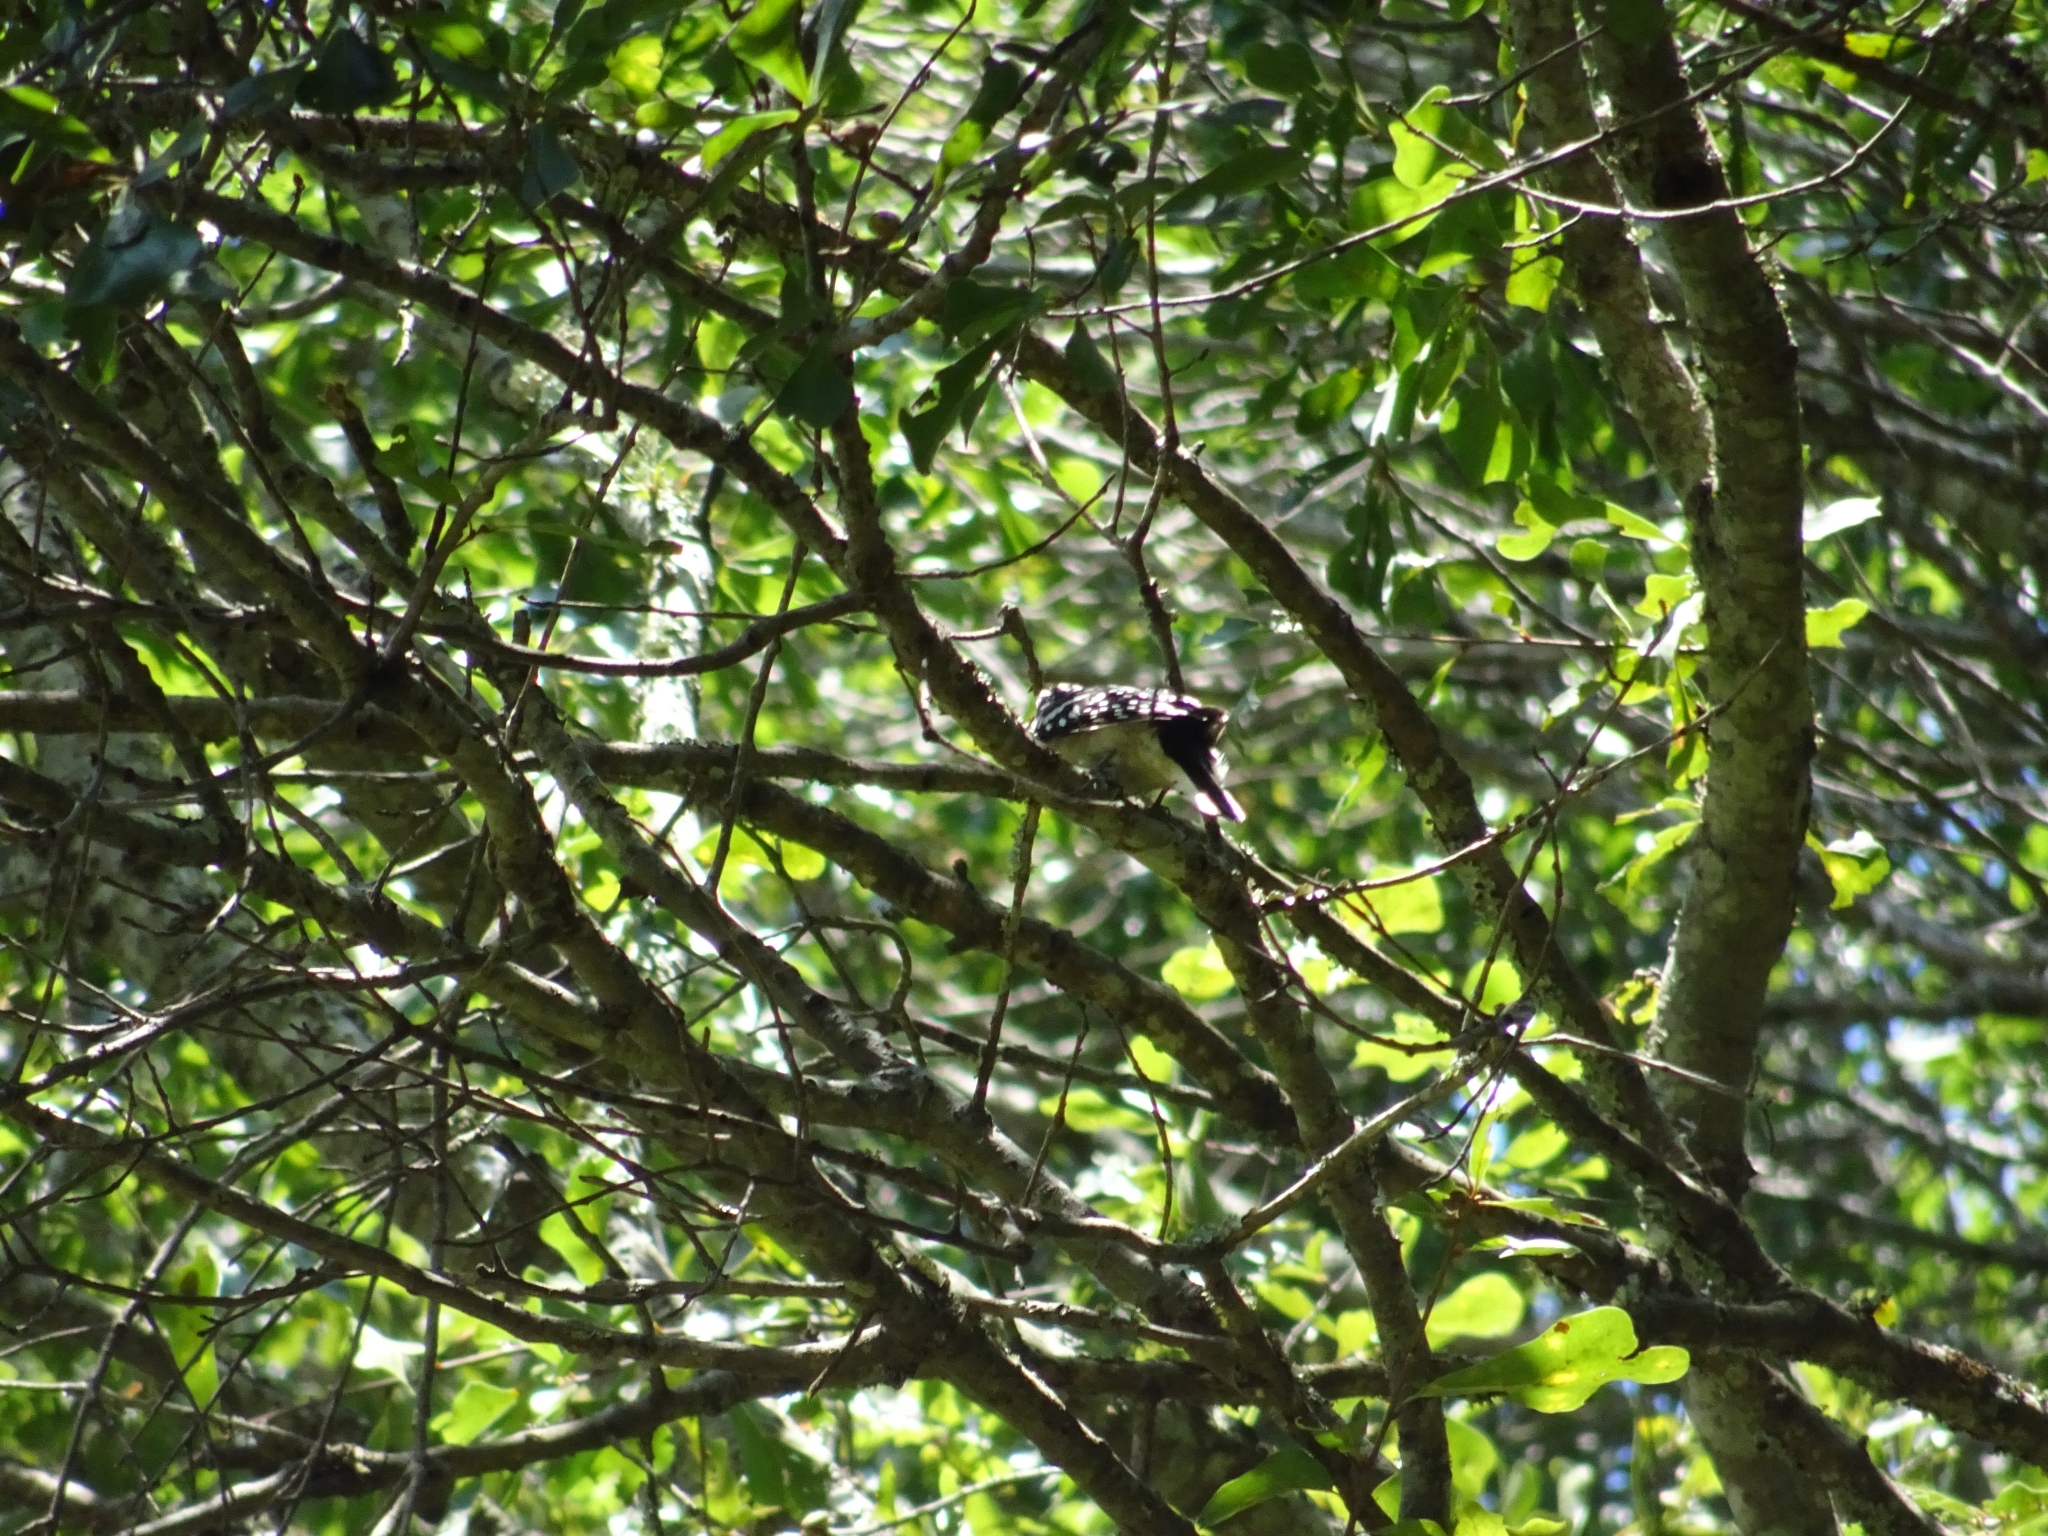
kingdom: Animalia
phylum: Chordata
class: Aves
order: Piciformes
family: Picidae
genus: Dryobates
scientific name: Dryobates pubescens
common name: Downy woodpecker
